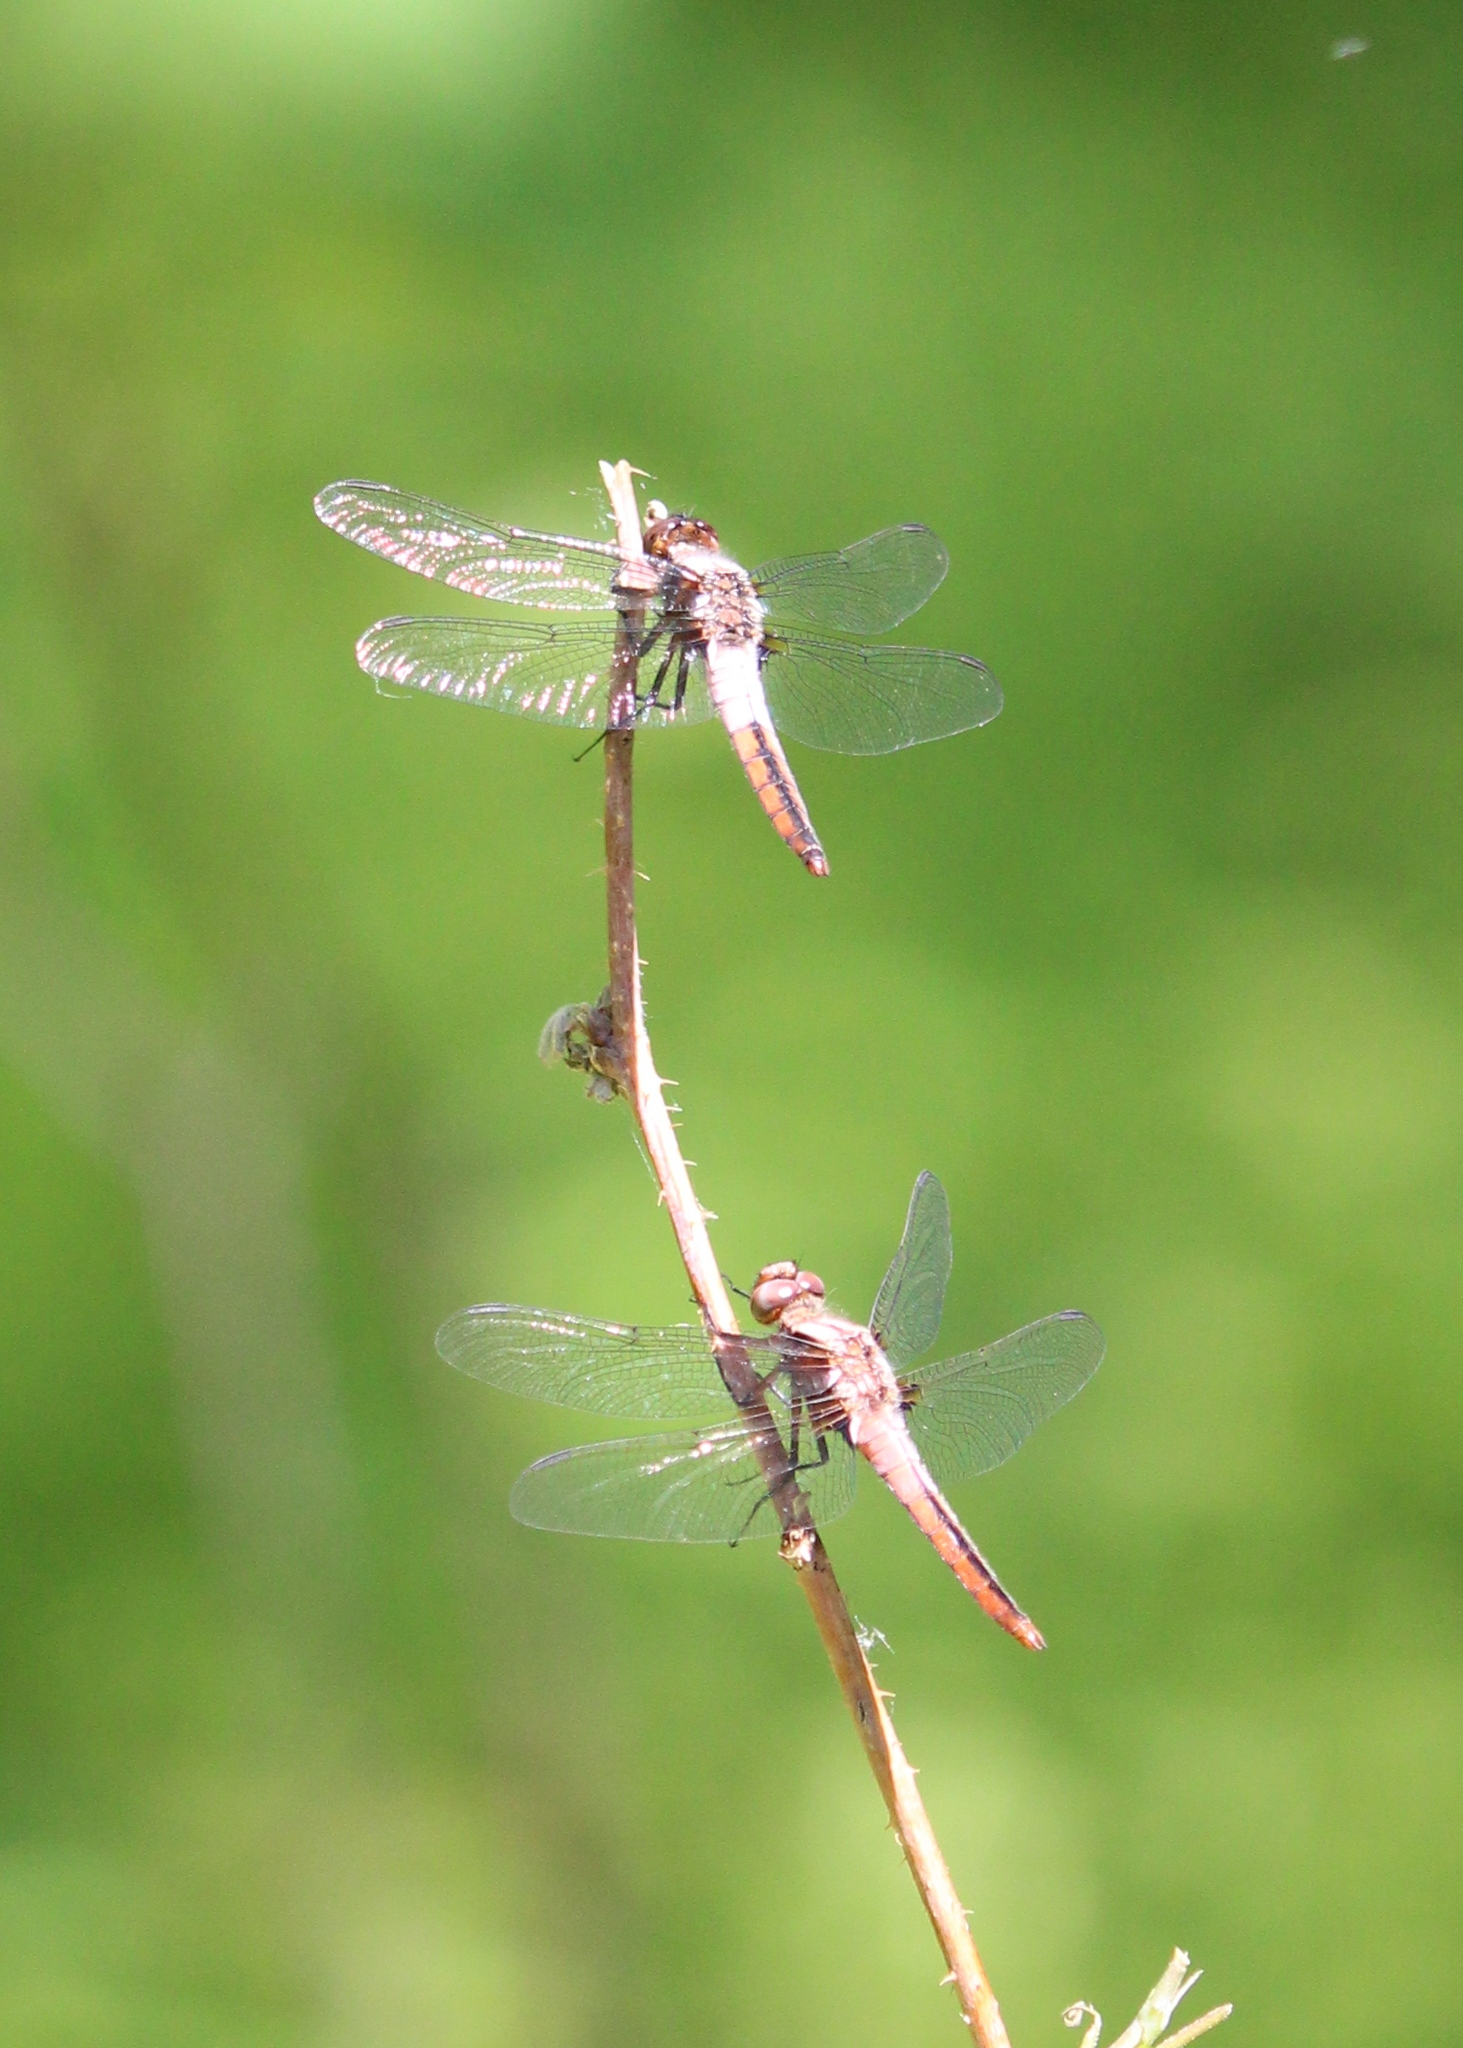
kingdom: Animalia
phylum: Arthropoda
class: Insecta
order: Odonata
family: Libellulidae
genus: Ladona
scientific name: Ladona julia
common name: Chalk-fronted corporal
